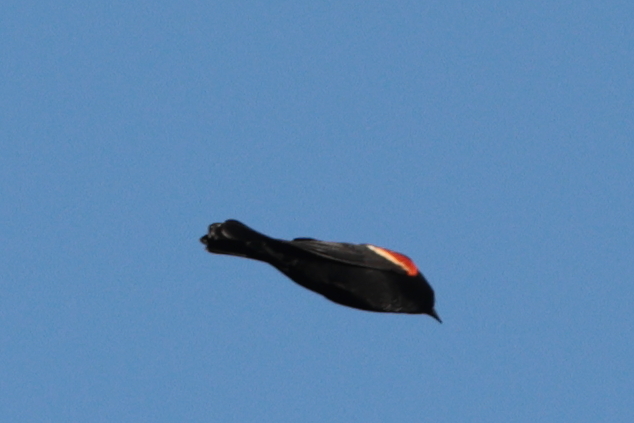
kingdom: Animalia
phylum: Chordata
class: Aves
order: Passeriformes
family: Icteridae
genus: Agelaius
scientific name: Agelaius phoeniceus
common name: Red-winged blackbird
